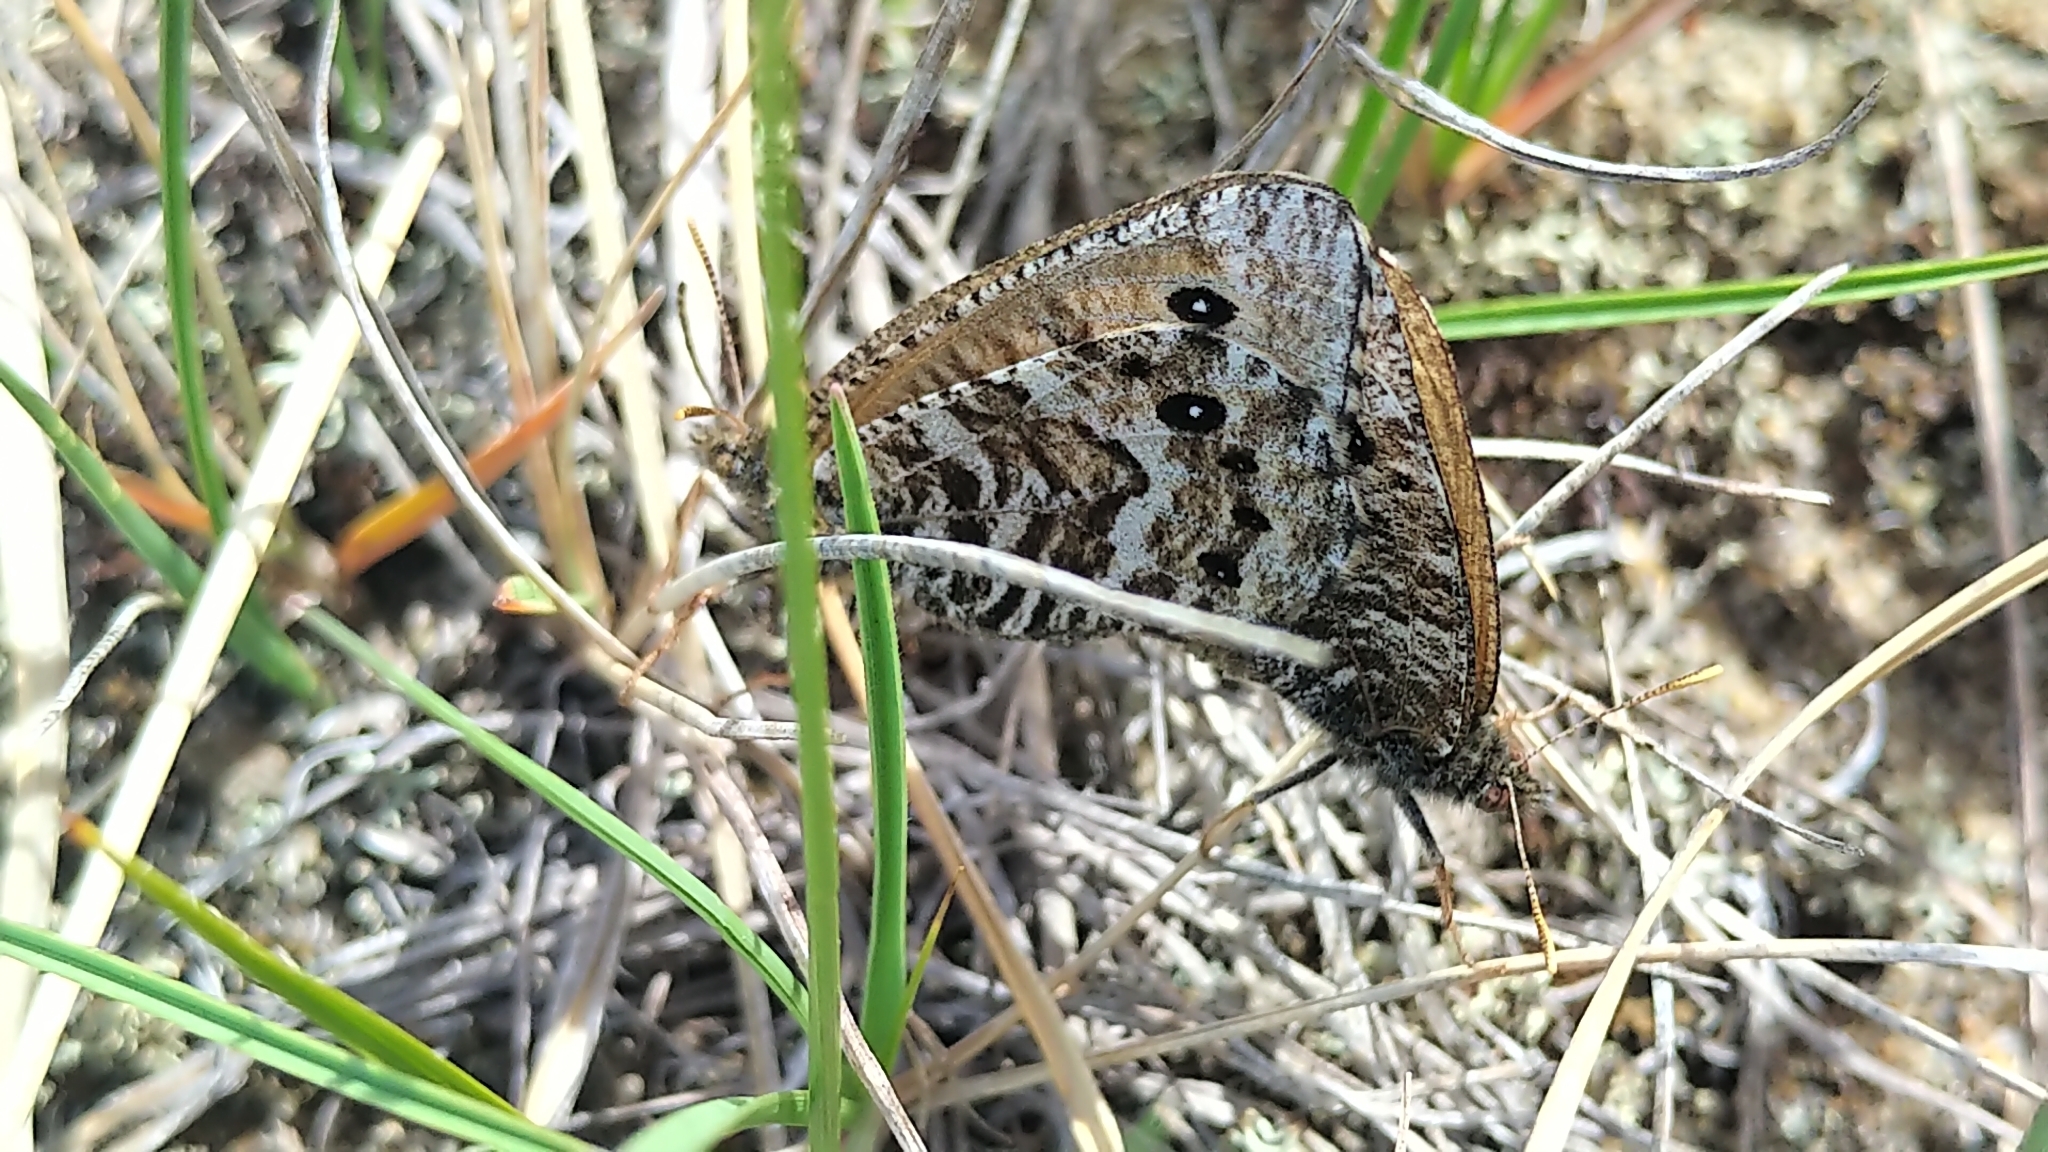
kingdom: Animalia
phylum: Arthropoda
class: Insecta
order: Lepidoptera
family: Nymphalidae
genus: Oeneis
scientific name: Oeneis uhleri
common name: Uhler's arctic
